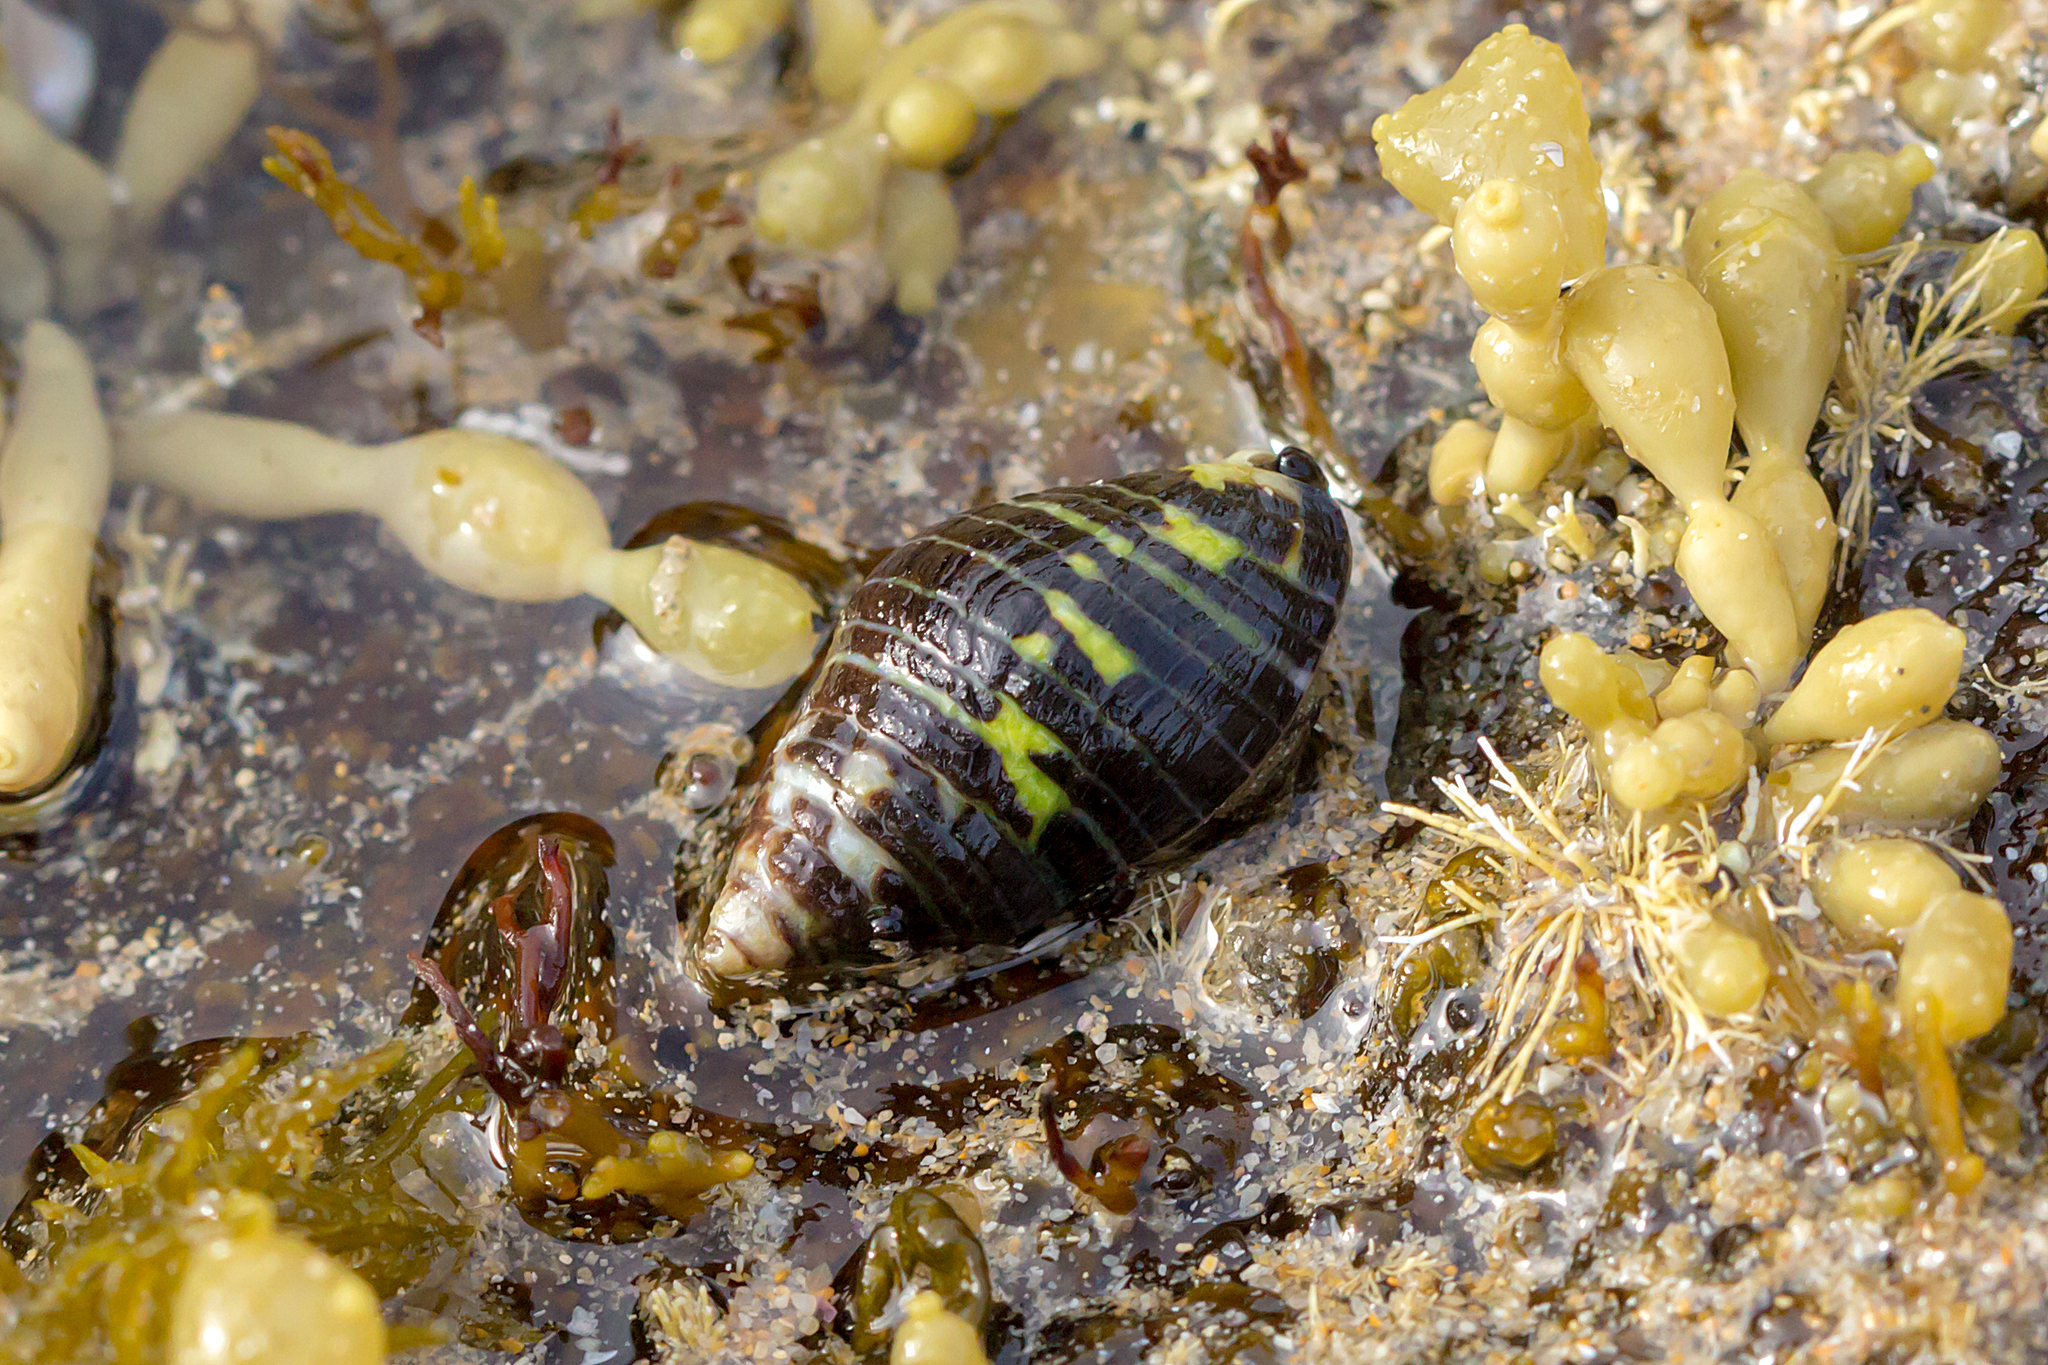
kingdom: Animalia
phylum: Mollusca
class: Gastropoda
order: Neogastropoda
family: Cominellidae
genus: Cominella
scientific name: Cominella lineolata
